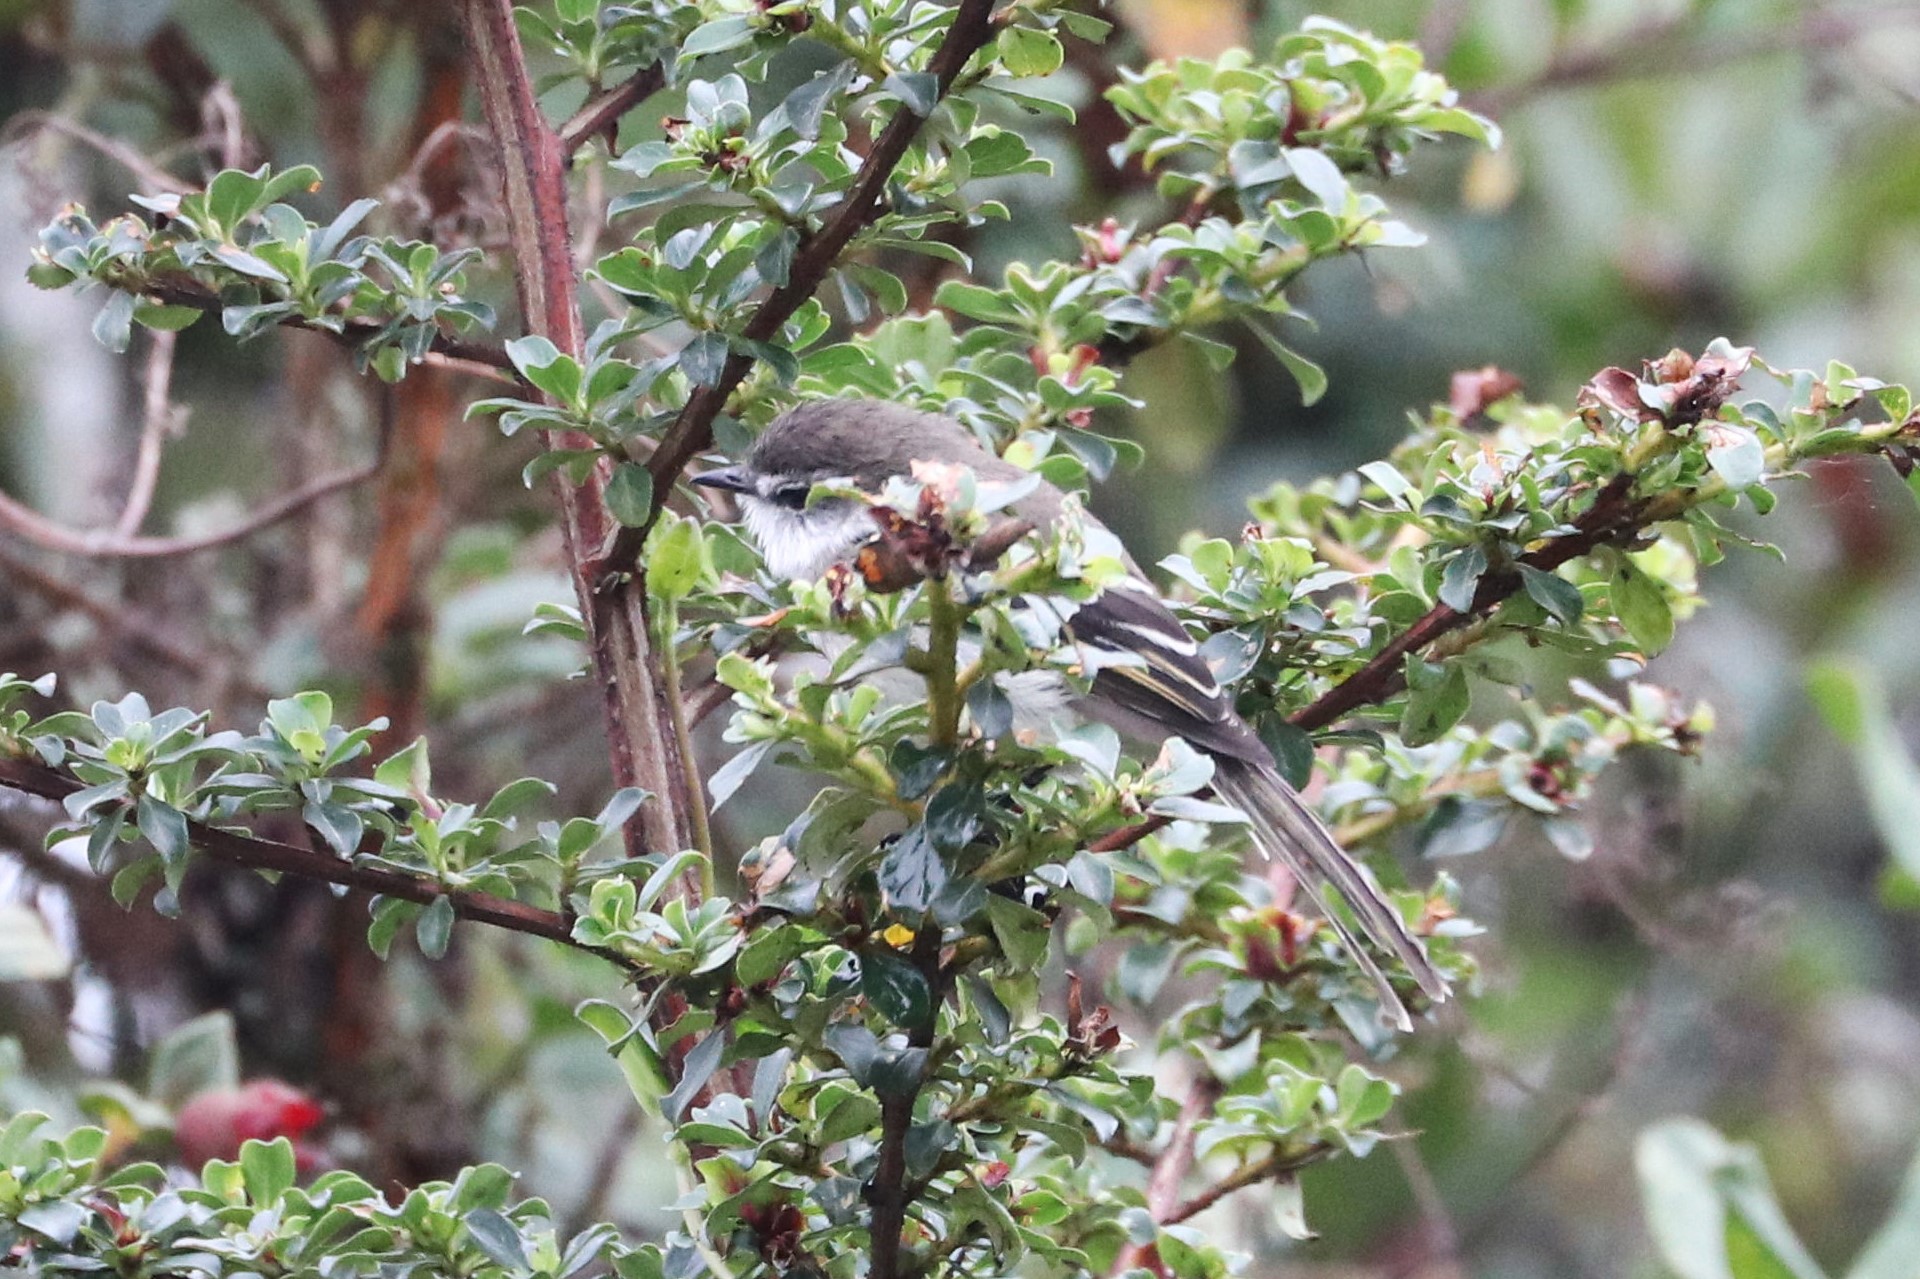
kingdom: Animalia
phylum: Chordata
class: Aves
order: Passeriformes
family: Tyrannidae
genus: Mecocerculus
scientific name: Mecocerculus leucophrys
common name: White-throated tyrannulet
